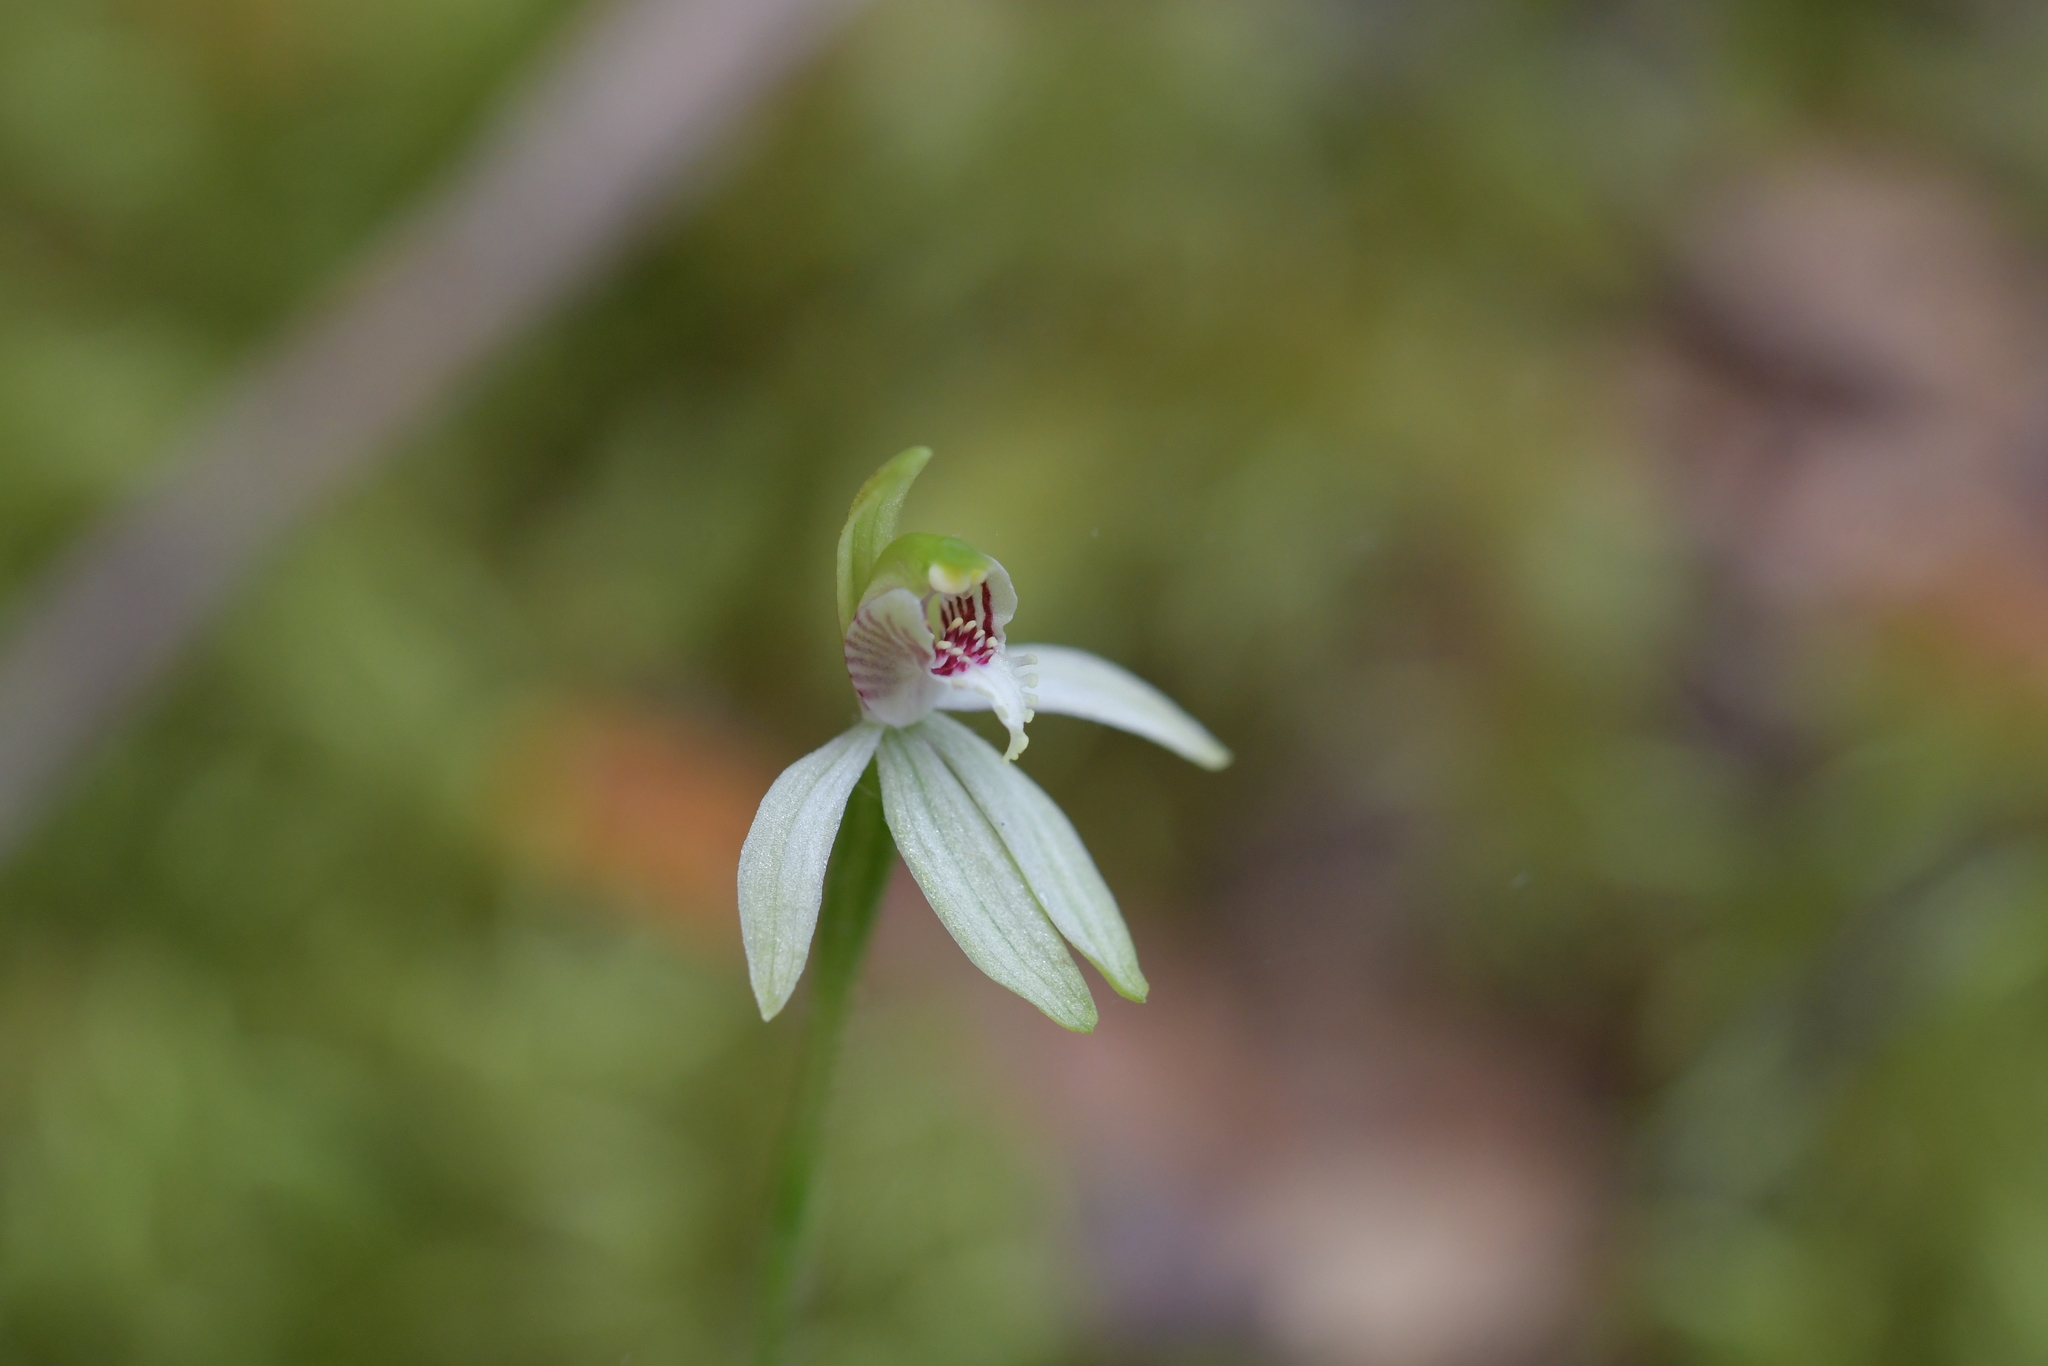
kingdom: Plantae
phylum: Tracheophyta
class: Liliopsida
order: Asparagales
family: Orchidaceae
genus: Caladenia
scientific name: Caladenia chlorostyla
